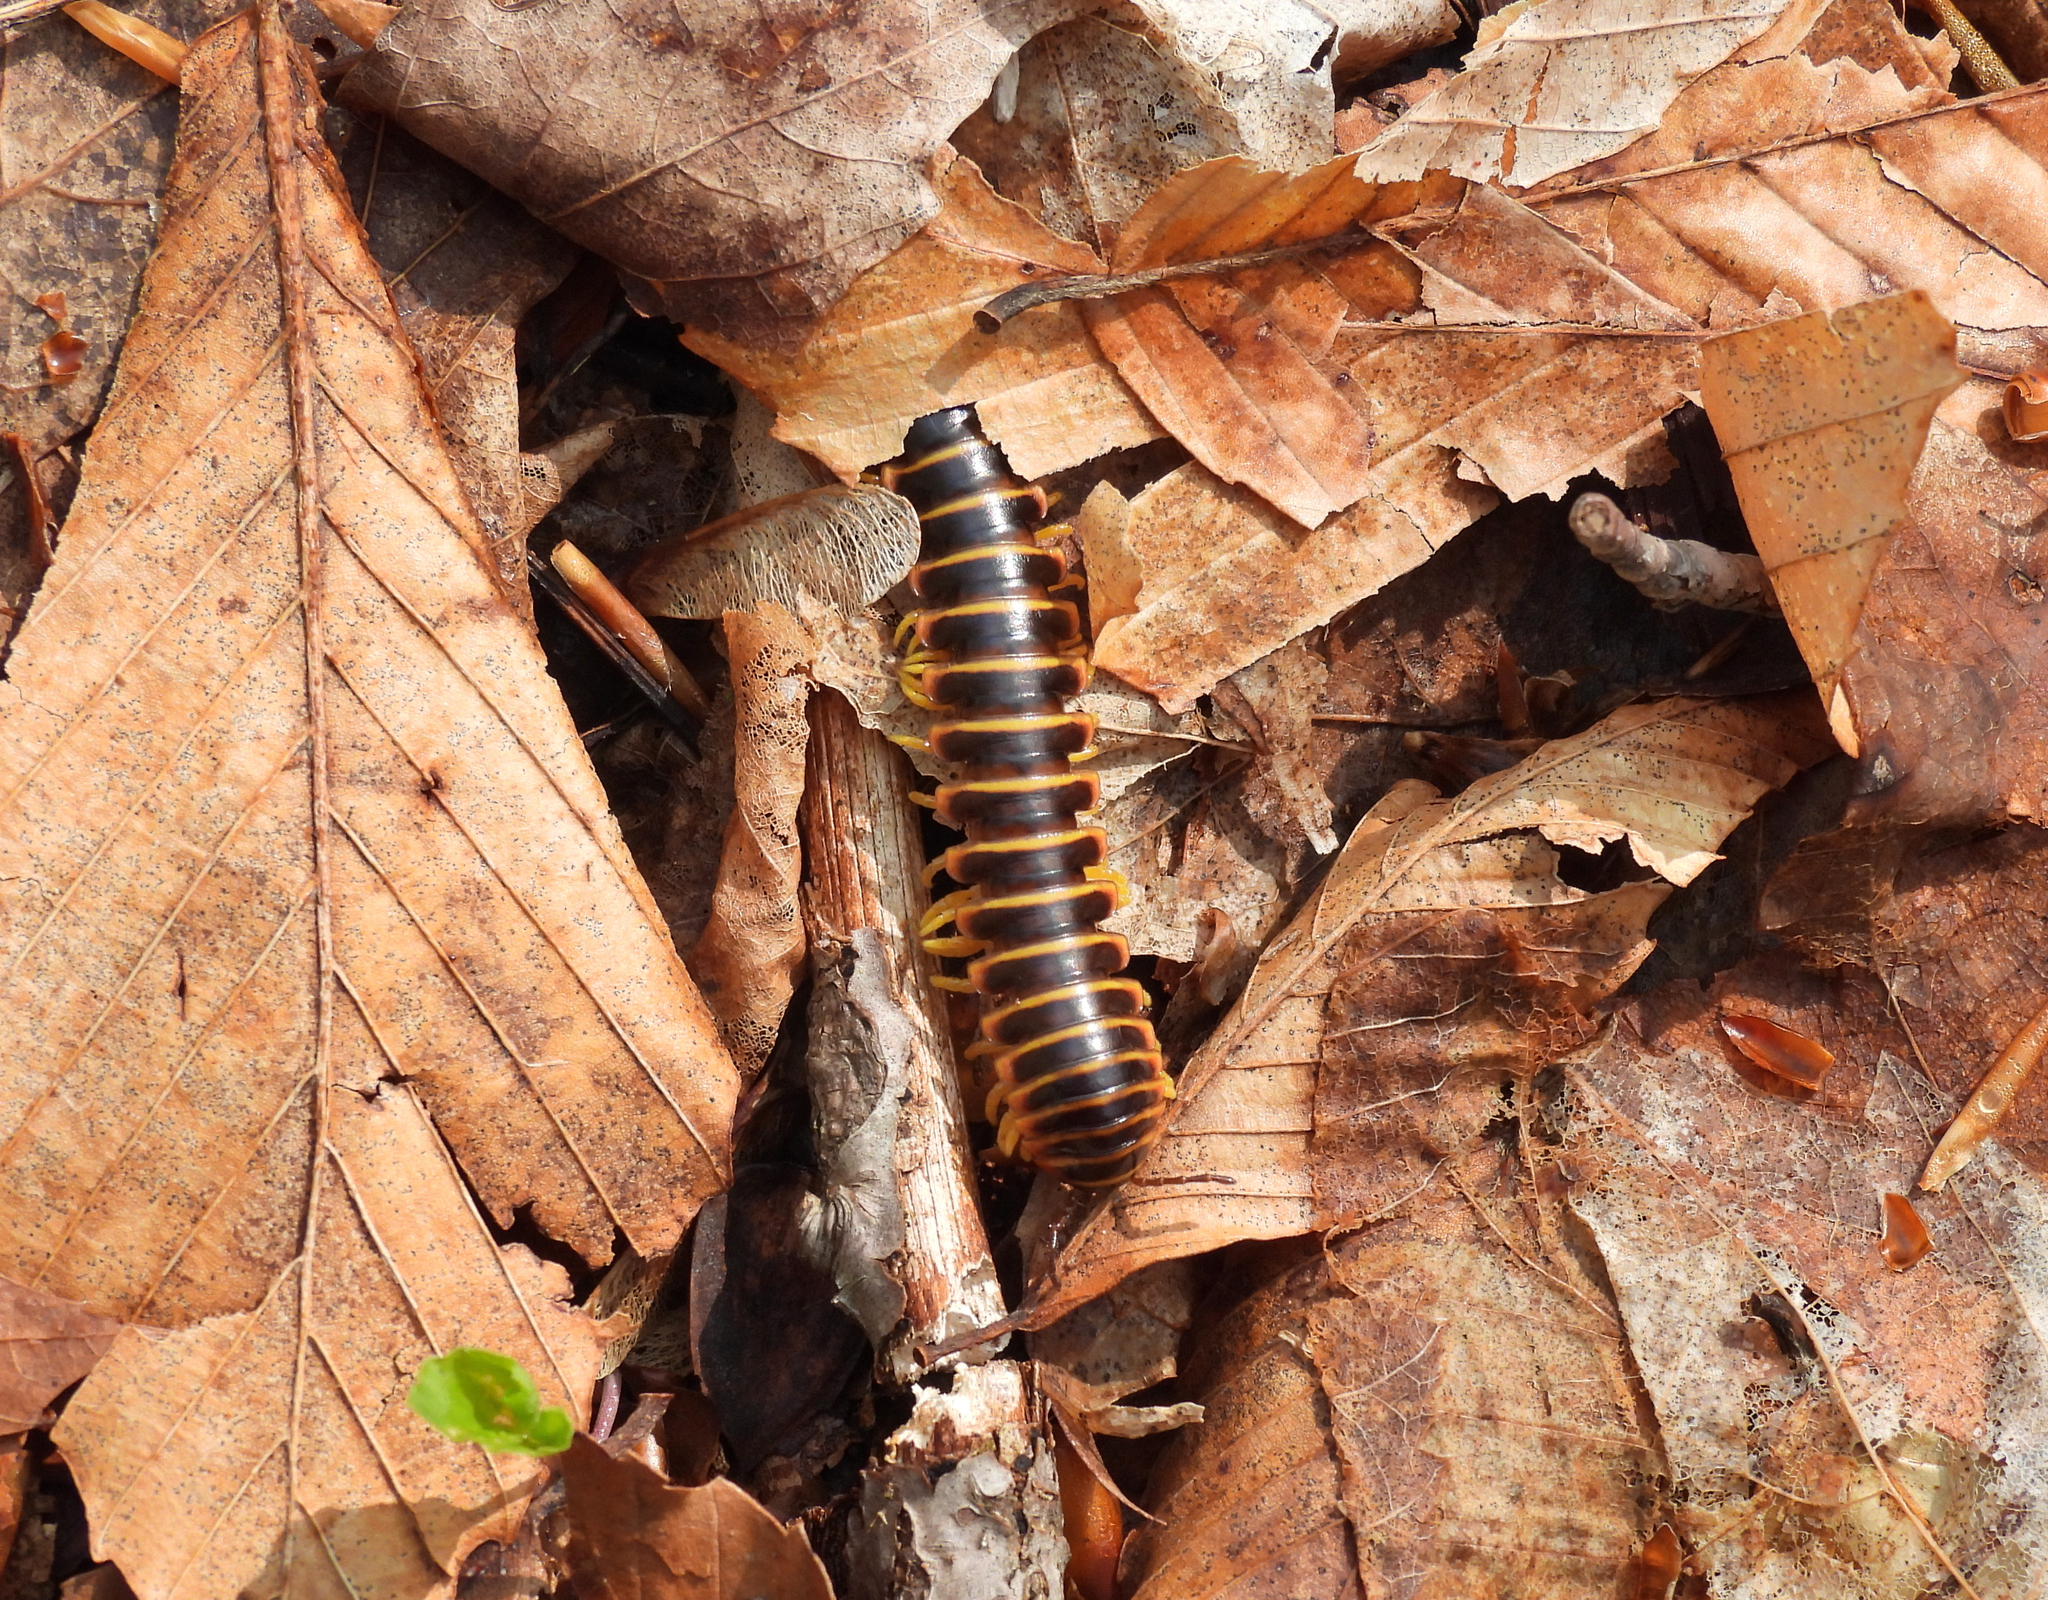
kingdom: Animalia
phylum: Arthropoda
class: Diplopoda
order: Polydesmida
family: Xystodesmidae
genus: Apheloria
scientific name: Apheloria virginiensis
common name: Black-and-gold flat millipede
